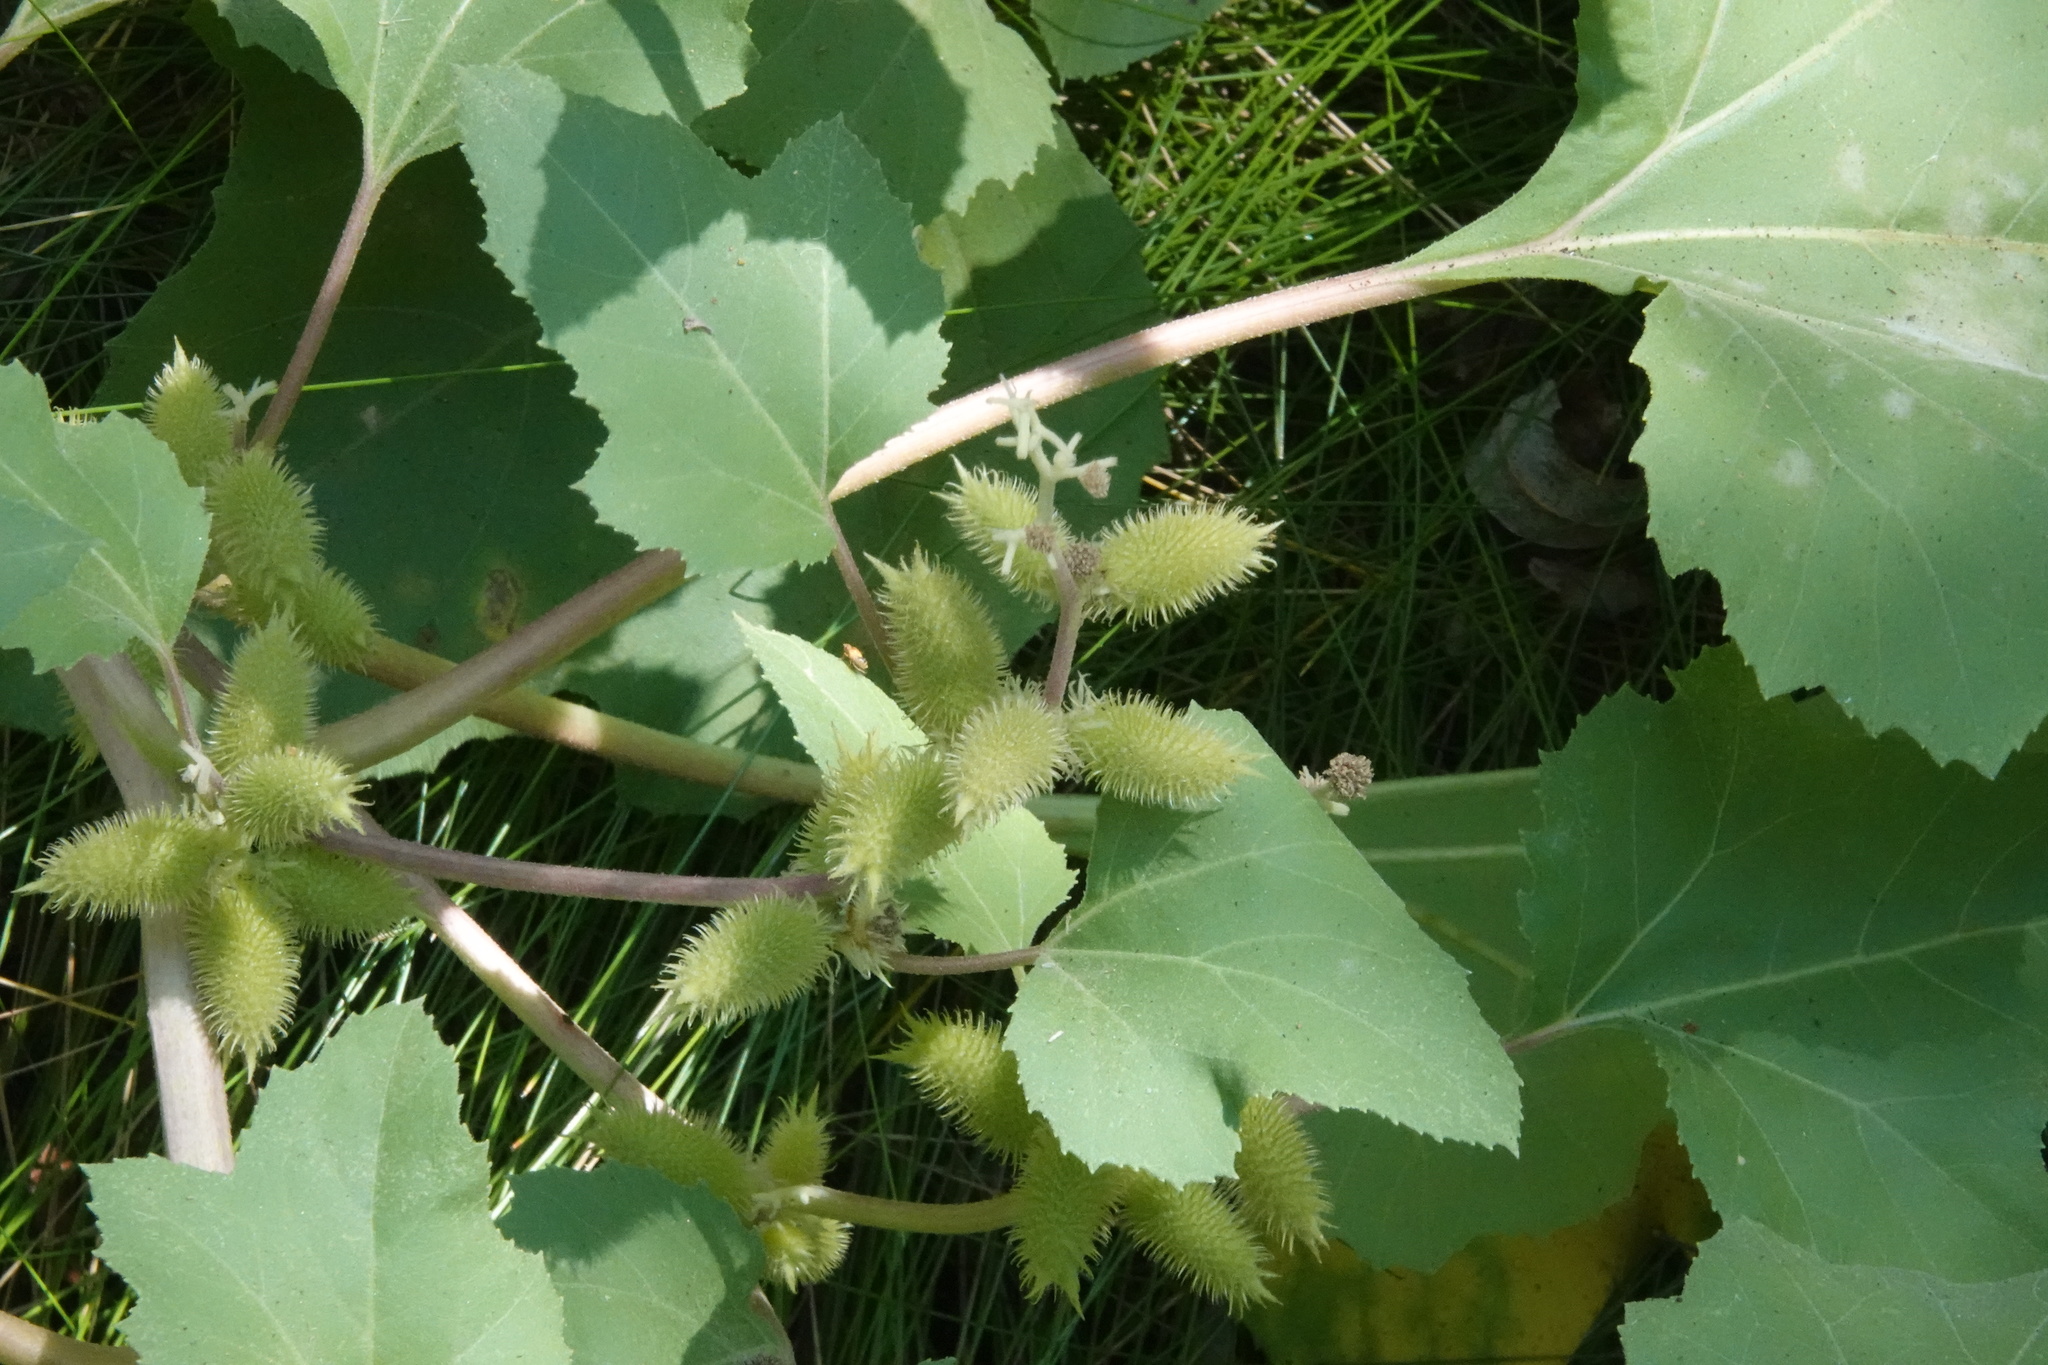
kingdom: Plantae
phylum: Tracheophyta
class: Magnoliopsida
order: Asterales
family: Asteraceae
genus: Xanthium
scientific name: Xanthium strumarium
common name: Rough cocklebur
